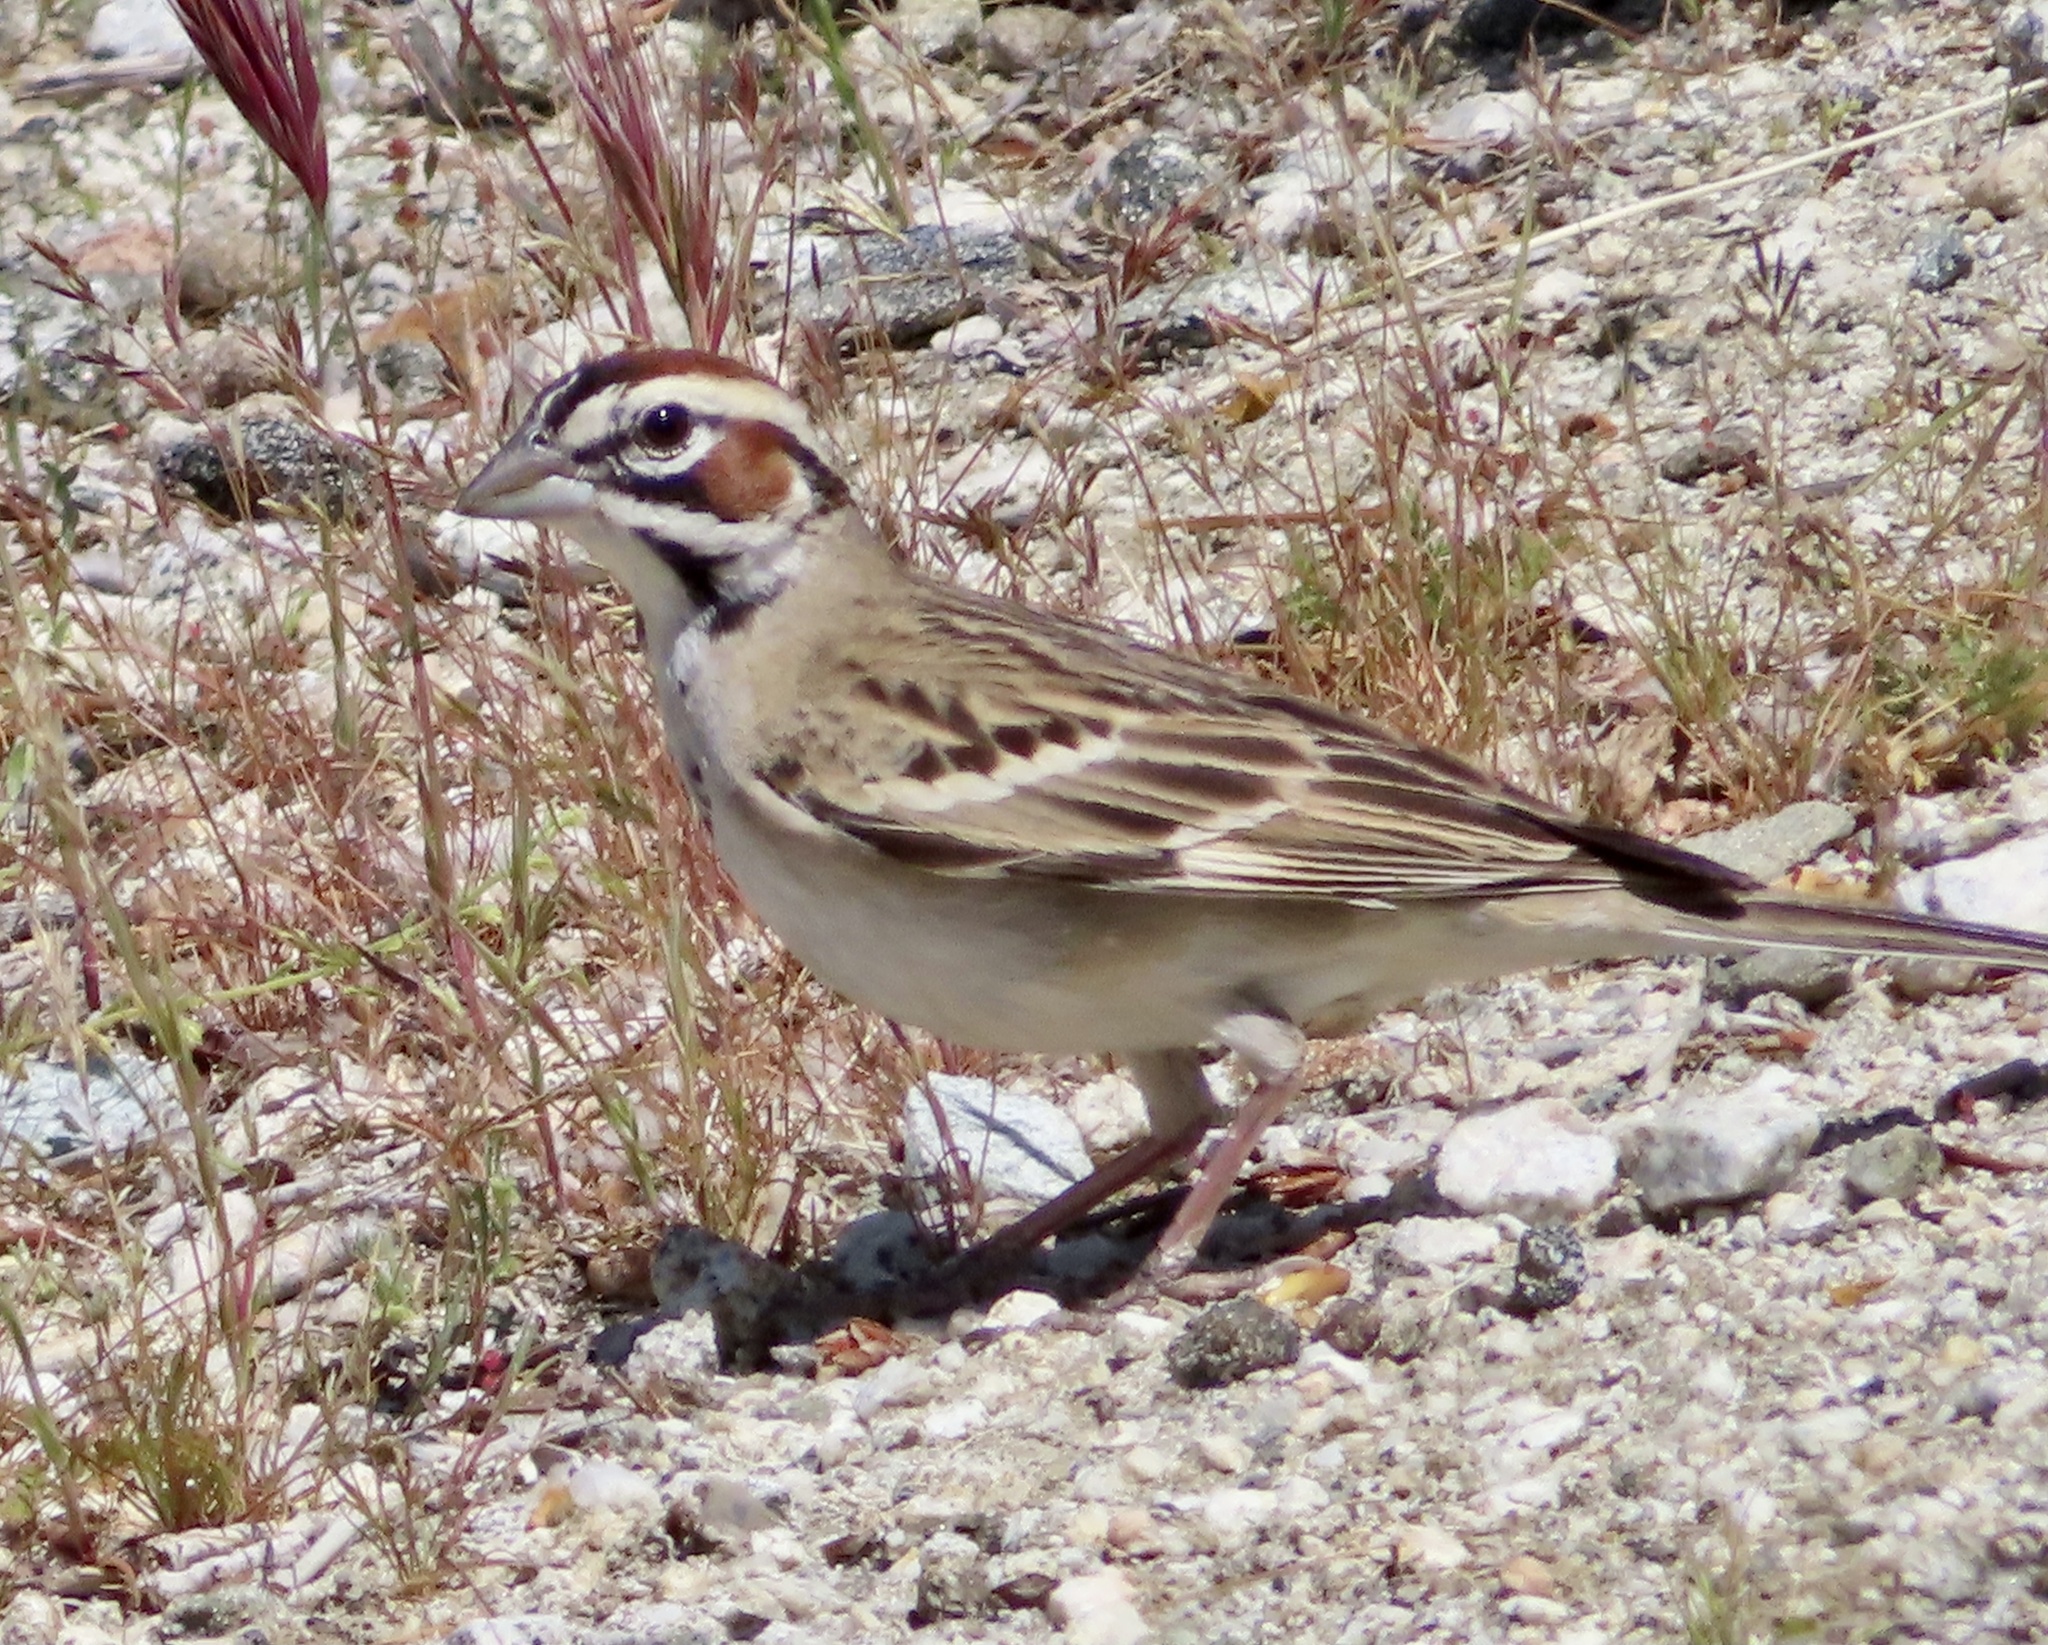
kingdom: Animalia
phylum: Chordata
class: Aves
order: Passeriformes
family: Passerellidae
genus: Chondestes
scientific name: Chondestes grammacus
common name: Lark sparrow
